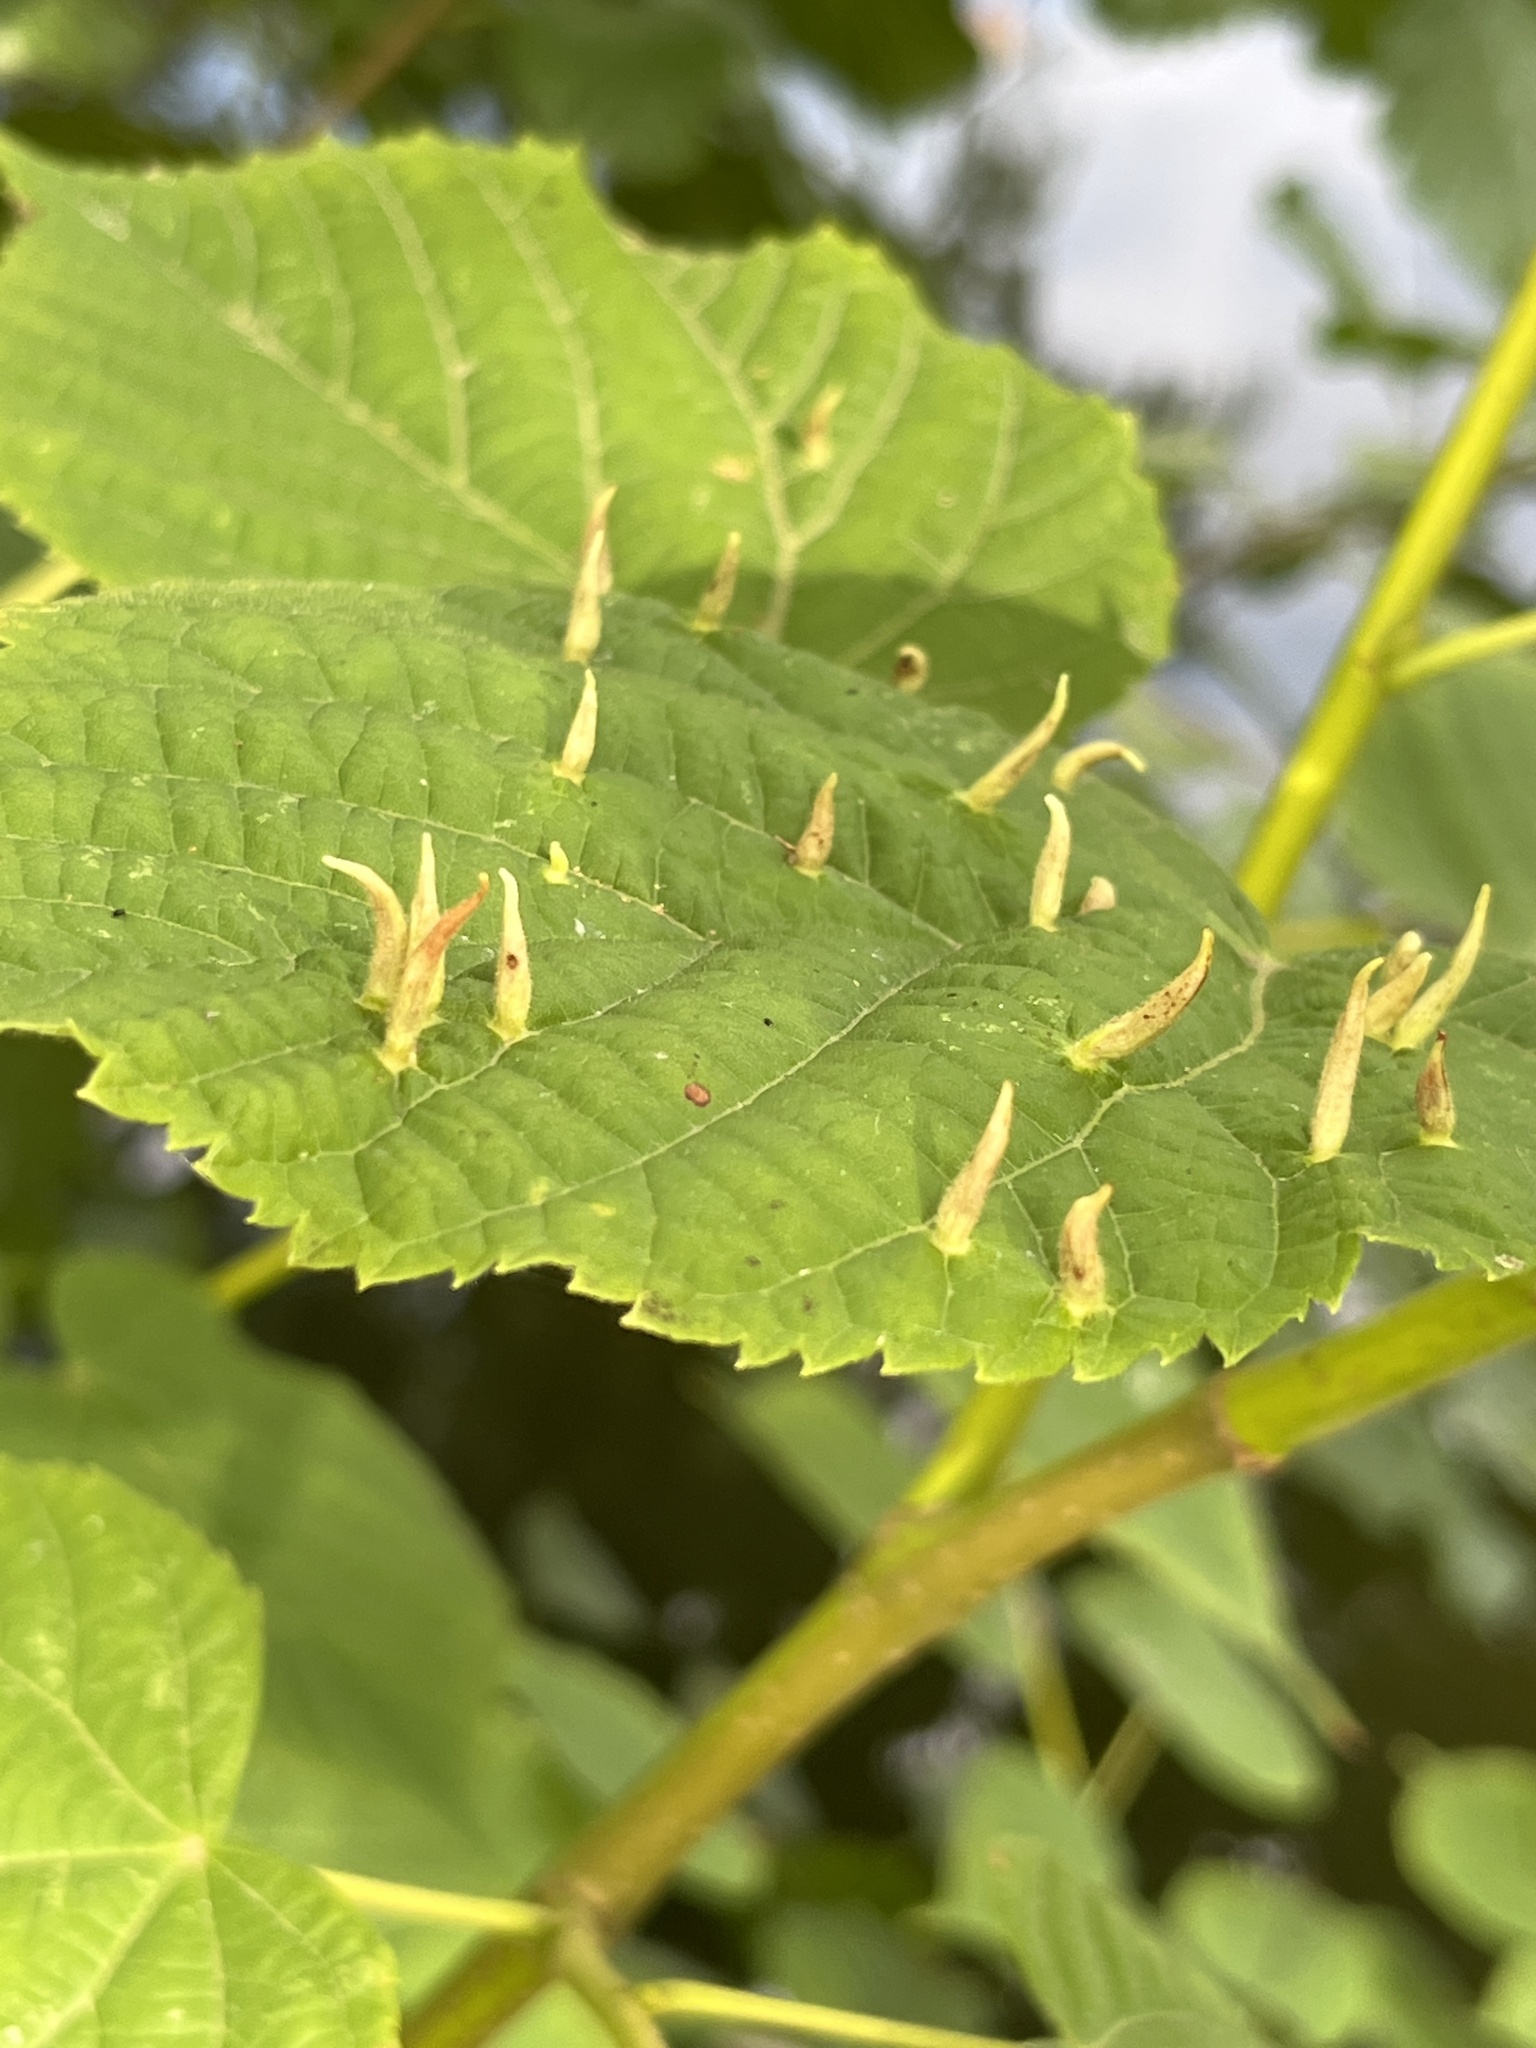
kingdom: Animalia
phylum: Arthropoda
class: Arachnida
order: Trombidiformes
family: Eriophyidae
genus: Eriophyes
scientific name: Eriophyes tiliae
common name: Red nail gall mite
